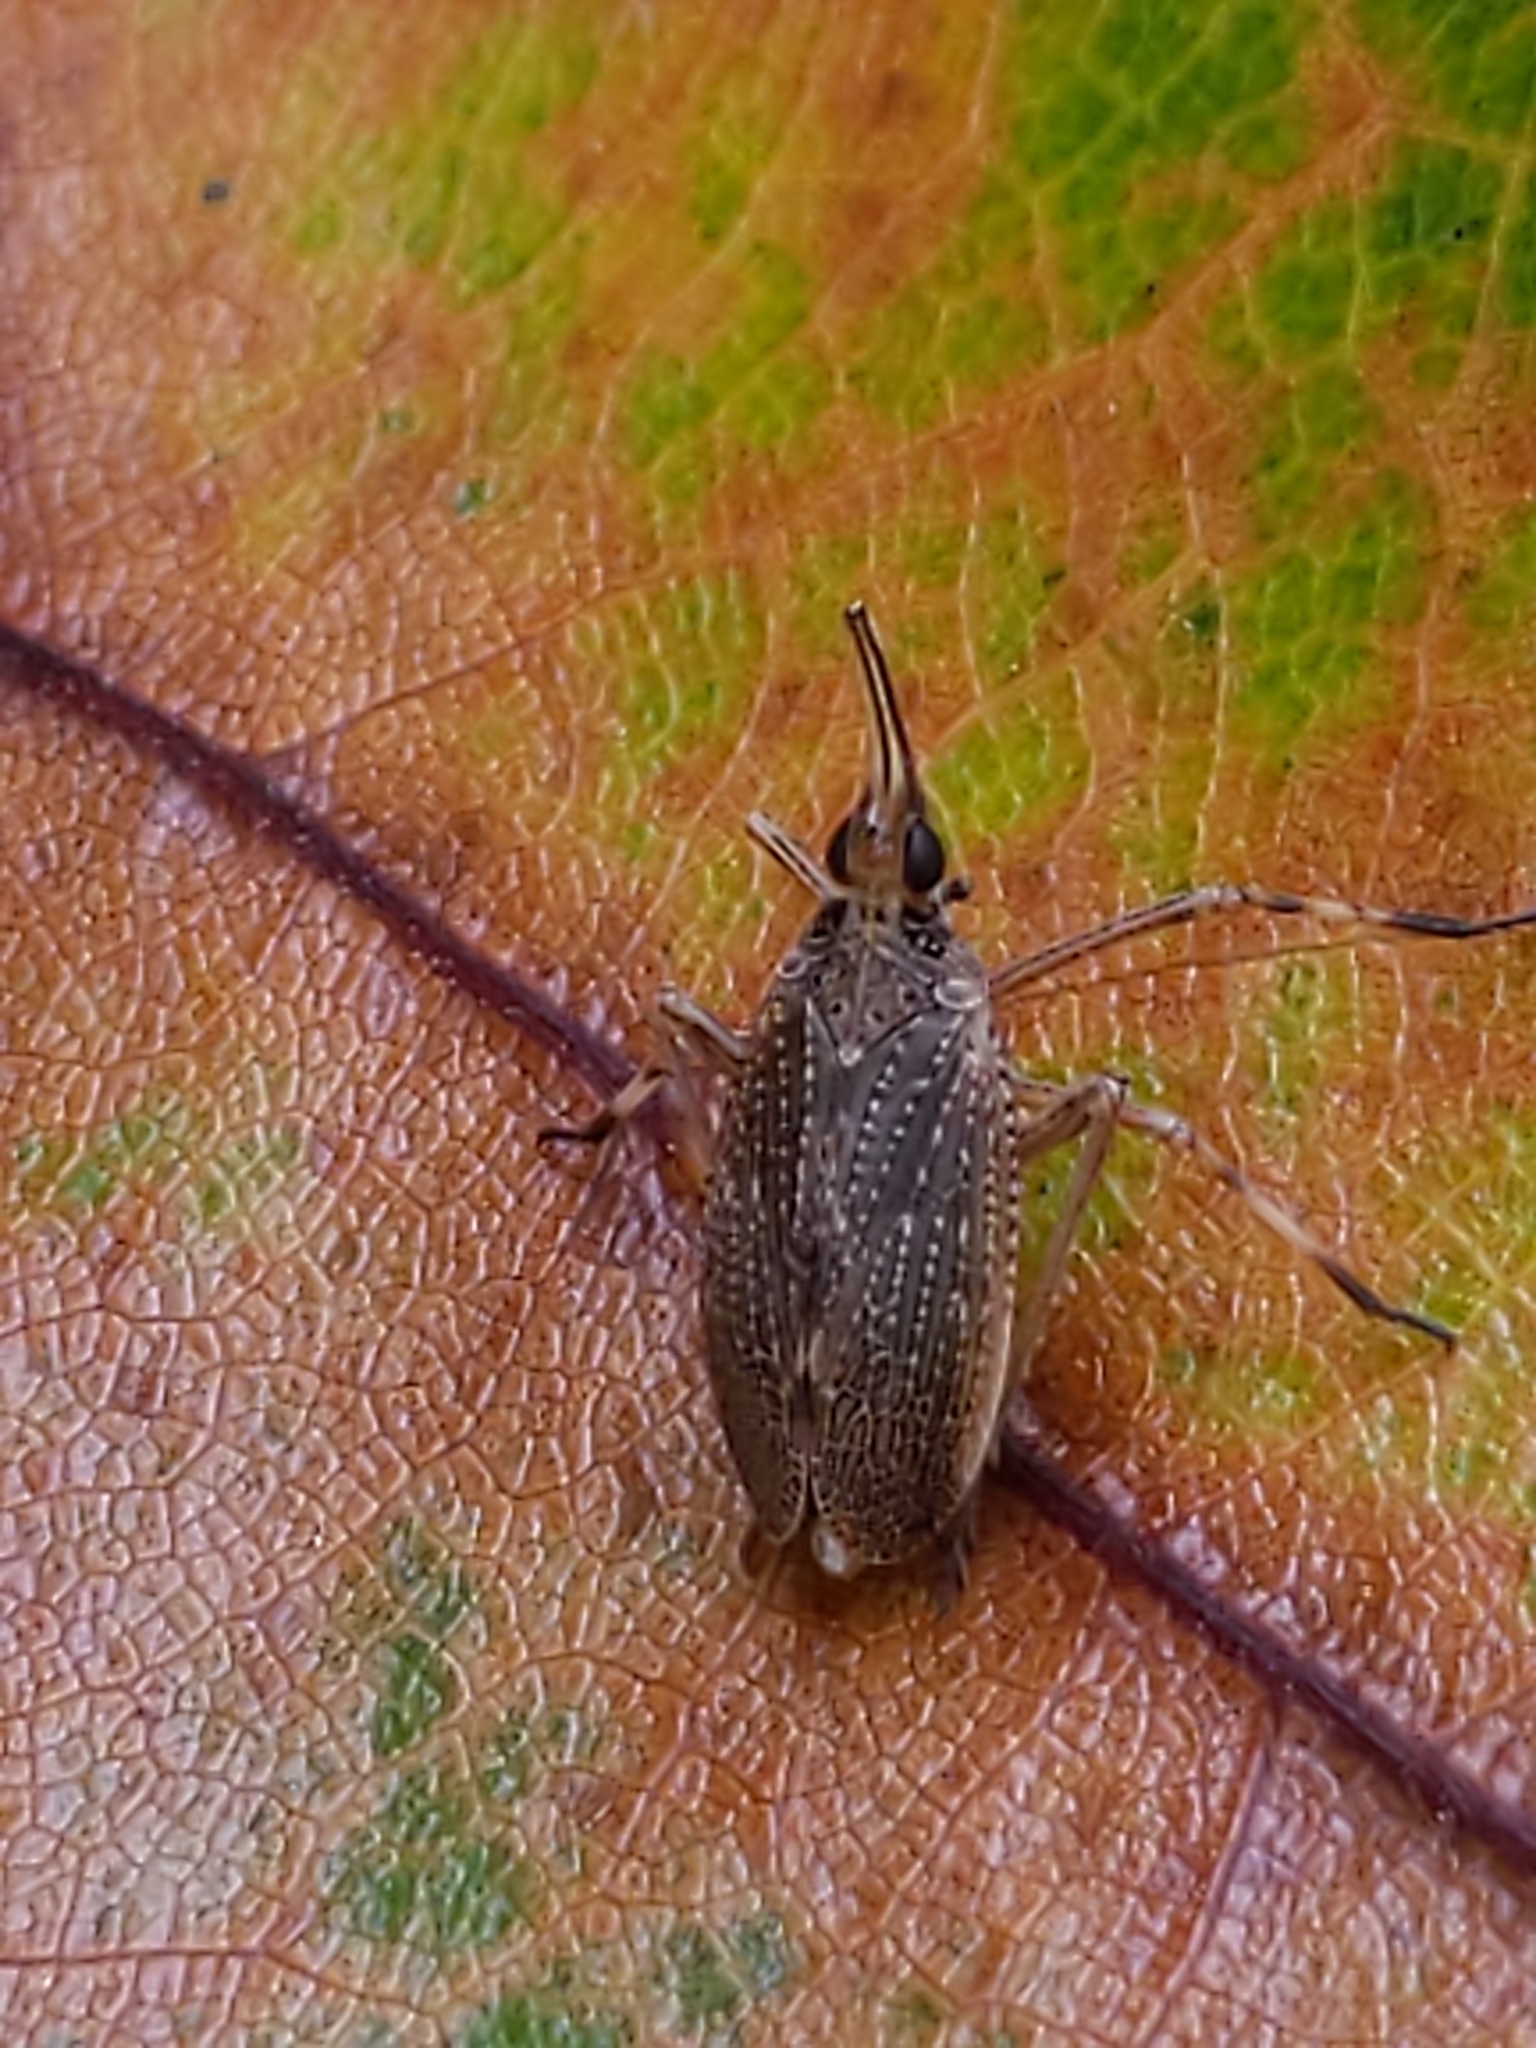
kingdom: Animalia
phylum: Arthropoda
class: Insecta
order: Hemiptera
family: Dictyopharidae
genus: Scolops
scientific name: Scolops sulcipes
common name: Partridge planthopper
